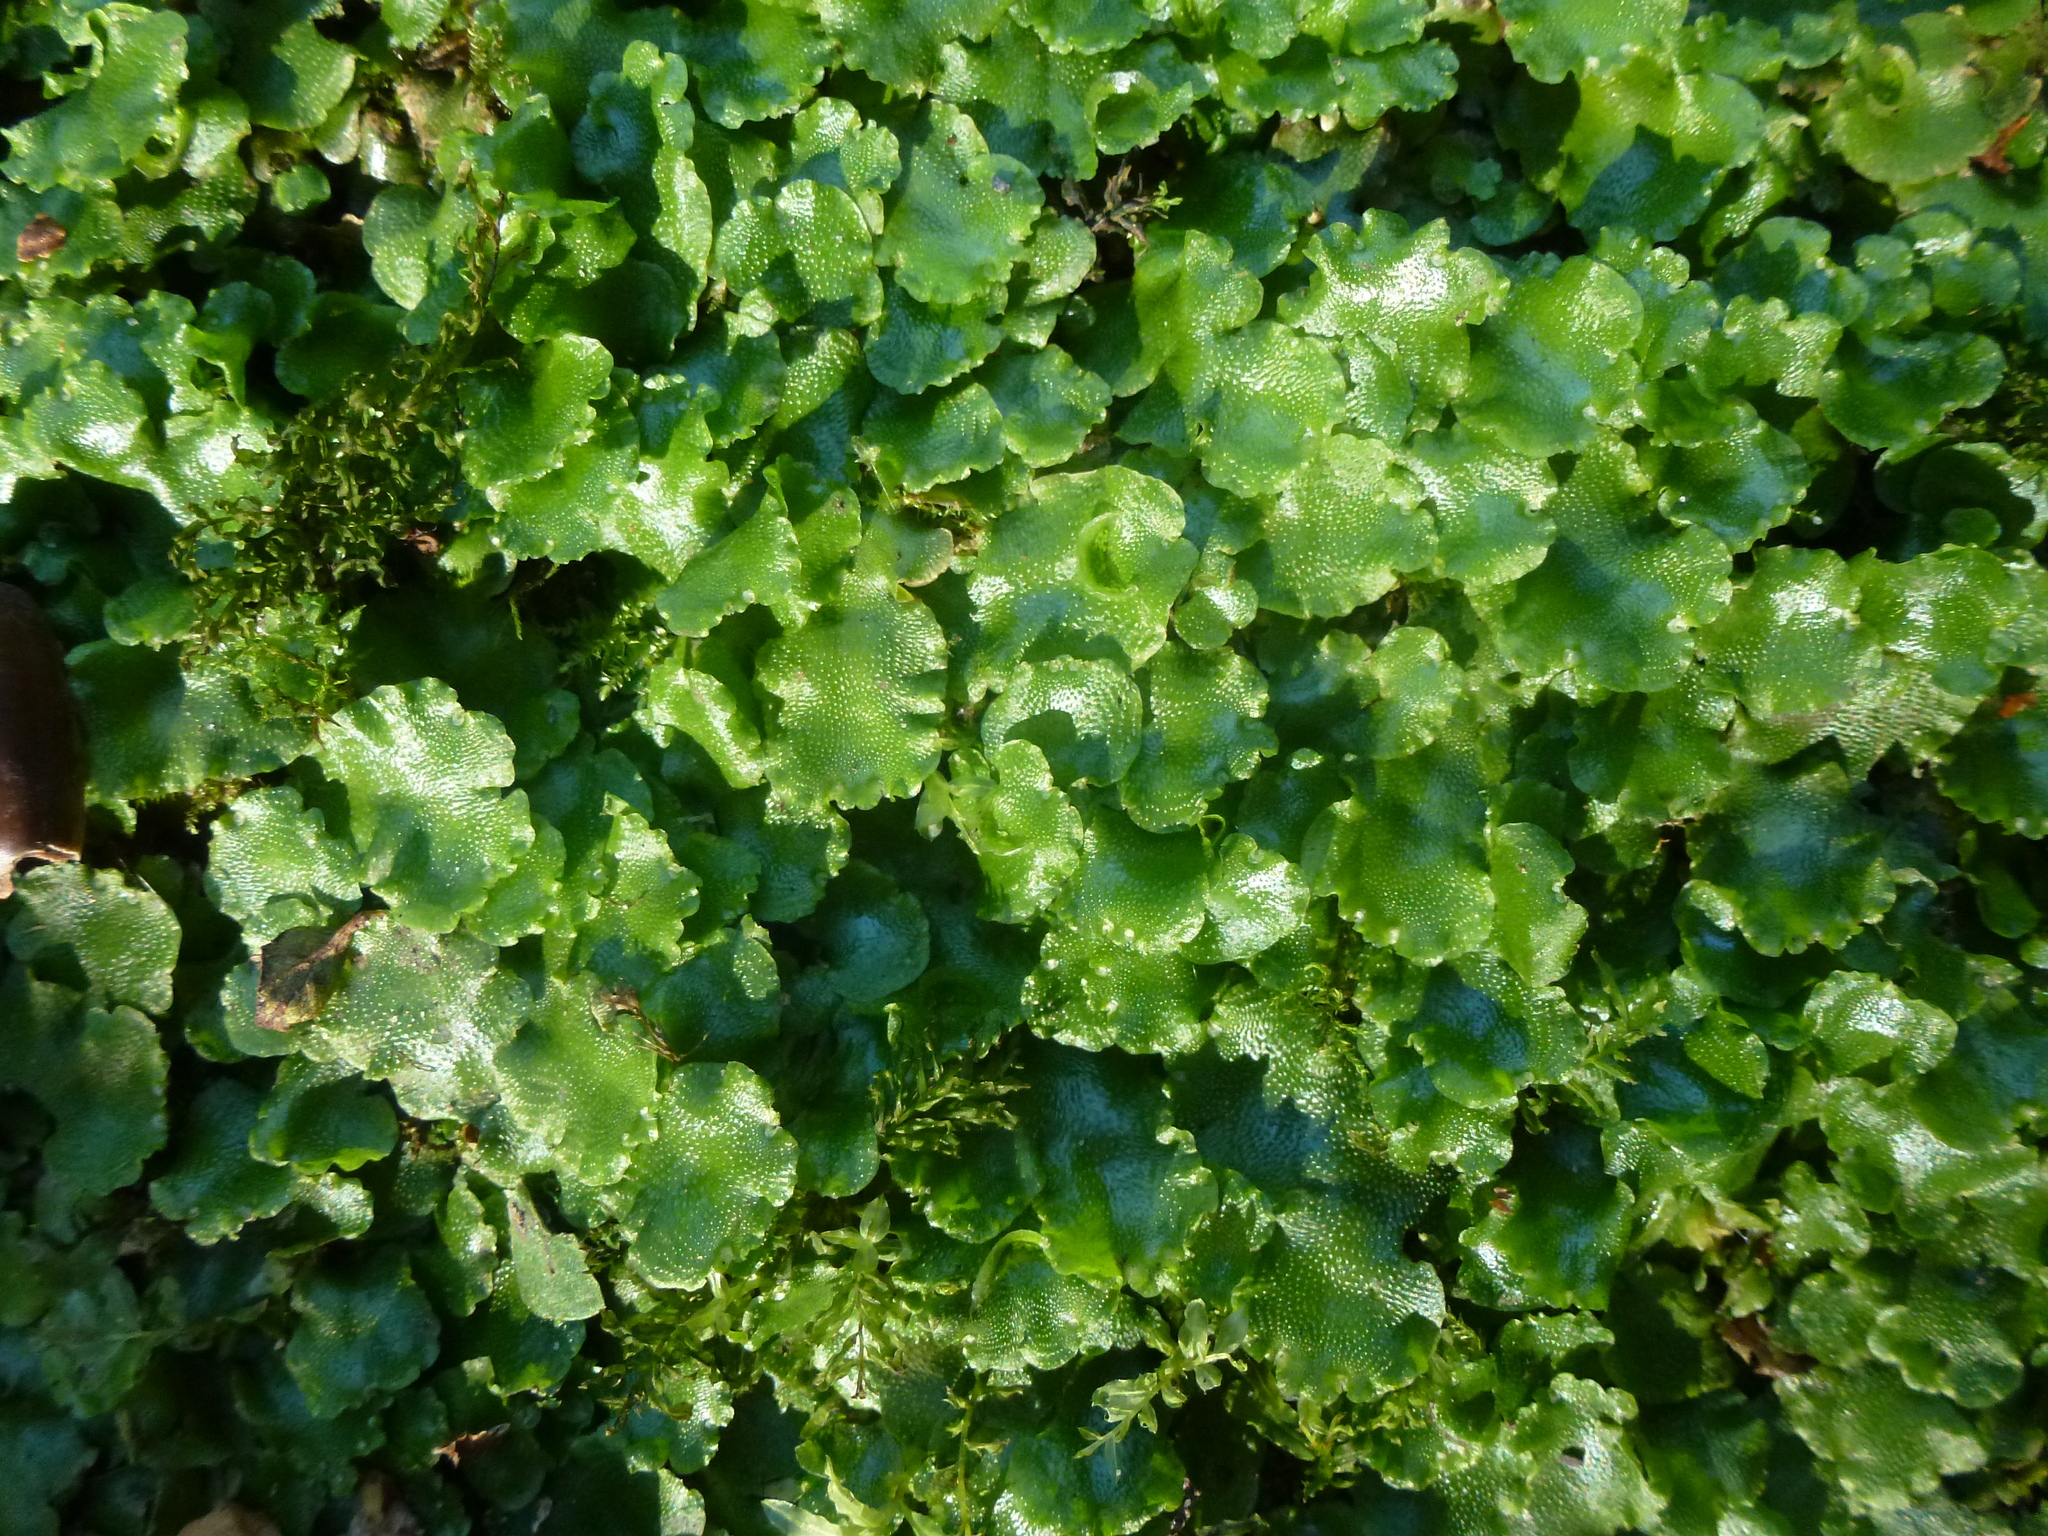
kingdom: Plantae
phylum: Marchantiophyta
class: Marchantiopsida
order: Lunulariales
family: Lunulariaceae
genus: Lunularia
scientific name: Lunularia cruciata
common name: Crescent-cup liverwort
